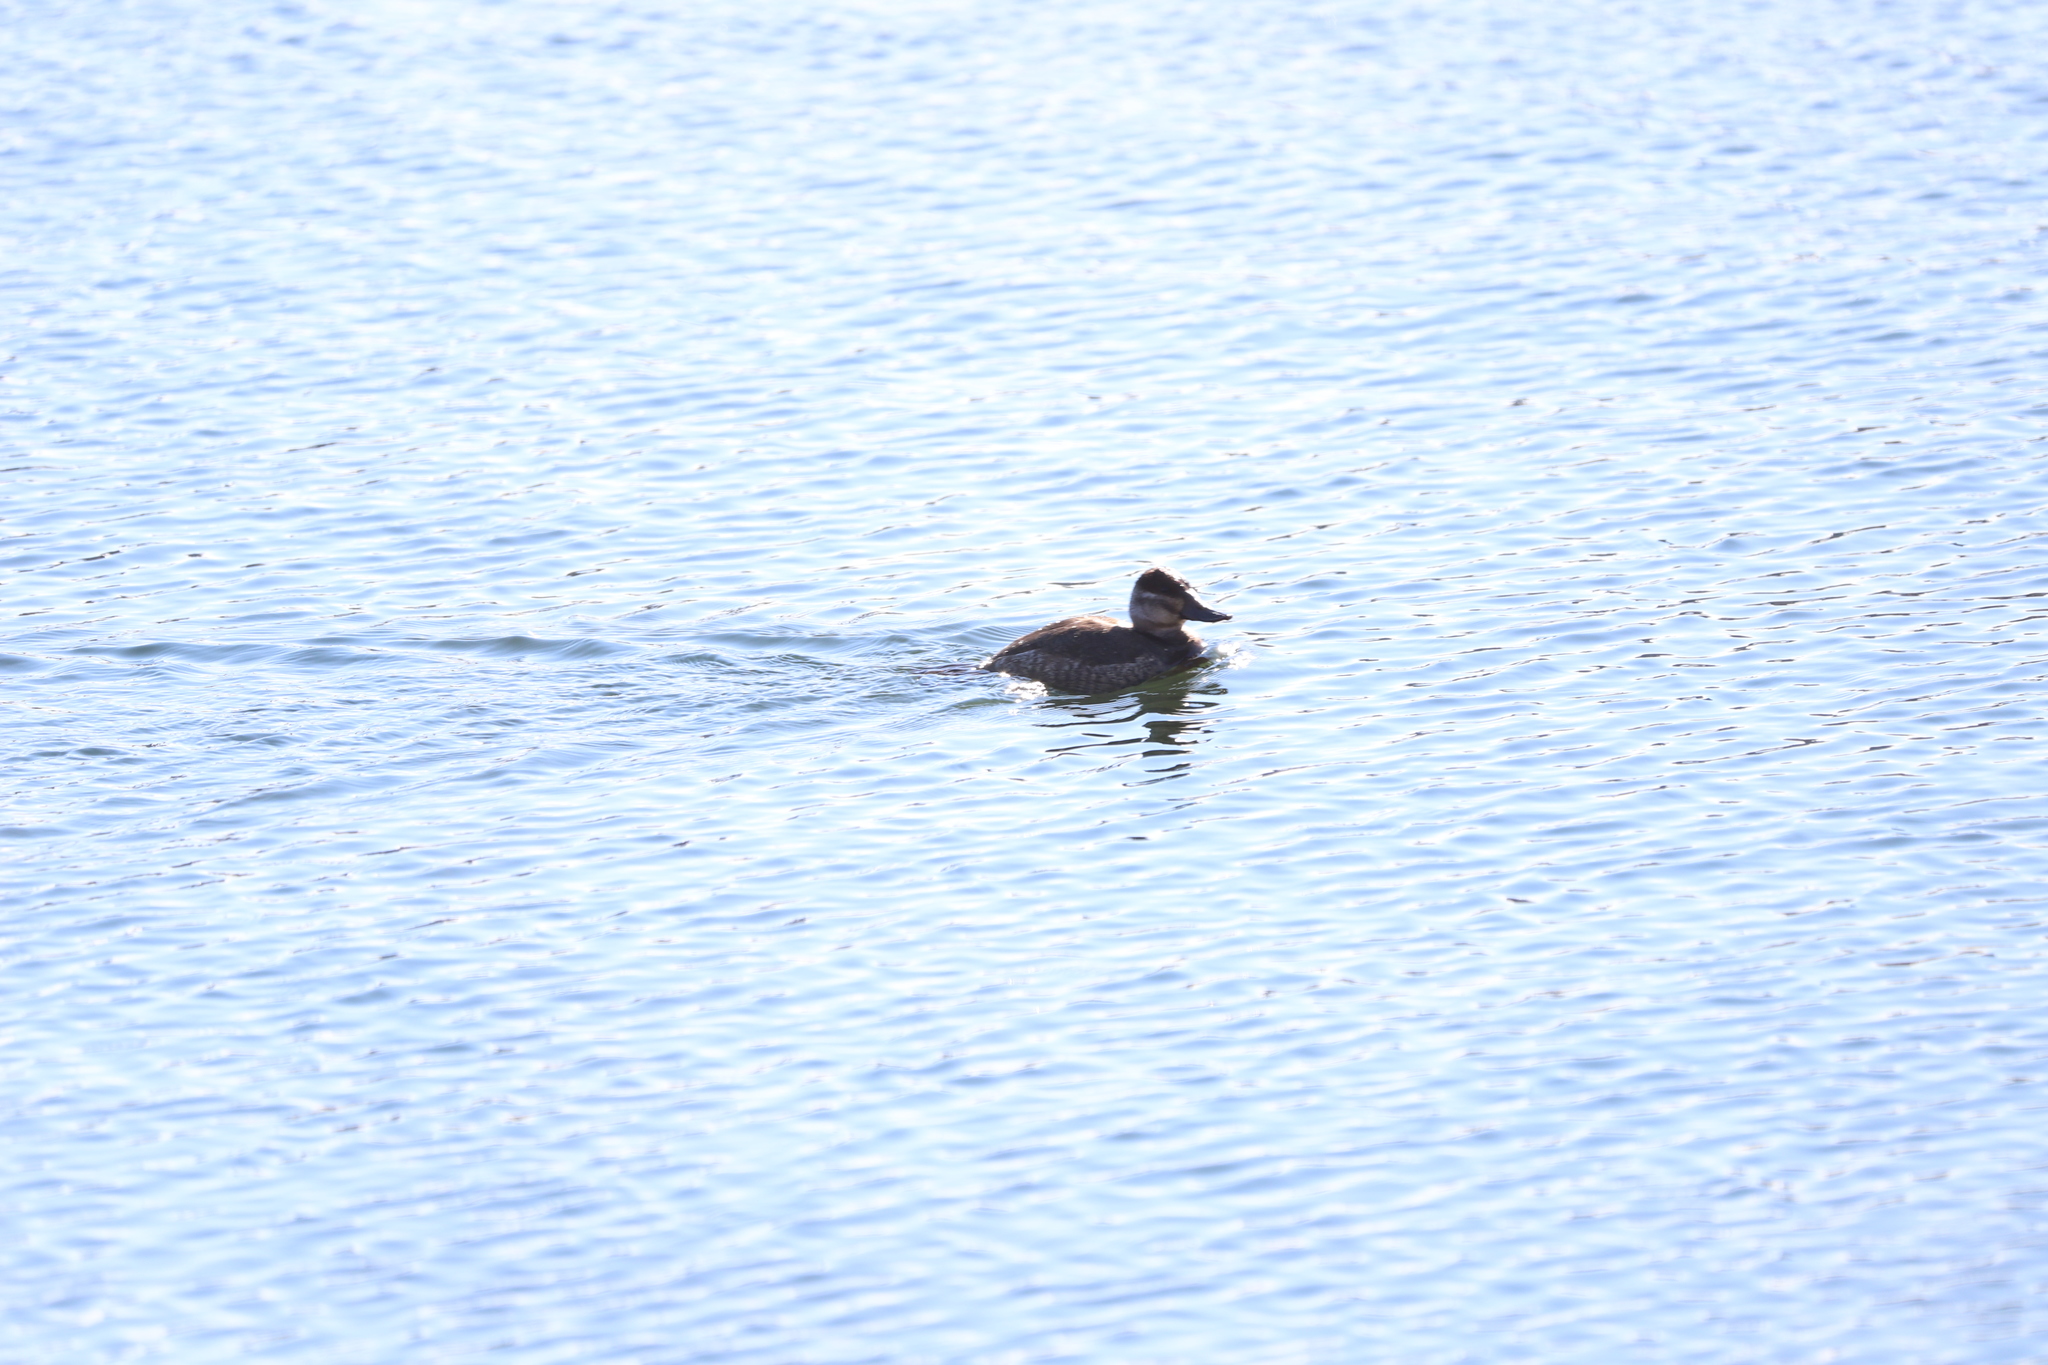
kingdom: Animalia
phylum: Chordata
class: Aves
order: Anseriformes
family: Anatidae
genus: Oxyura
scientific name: Oxyura jamaicensis
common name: Ruddy duck
